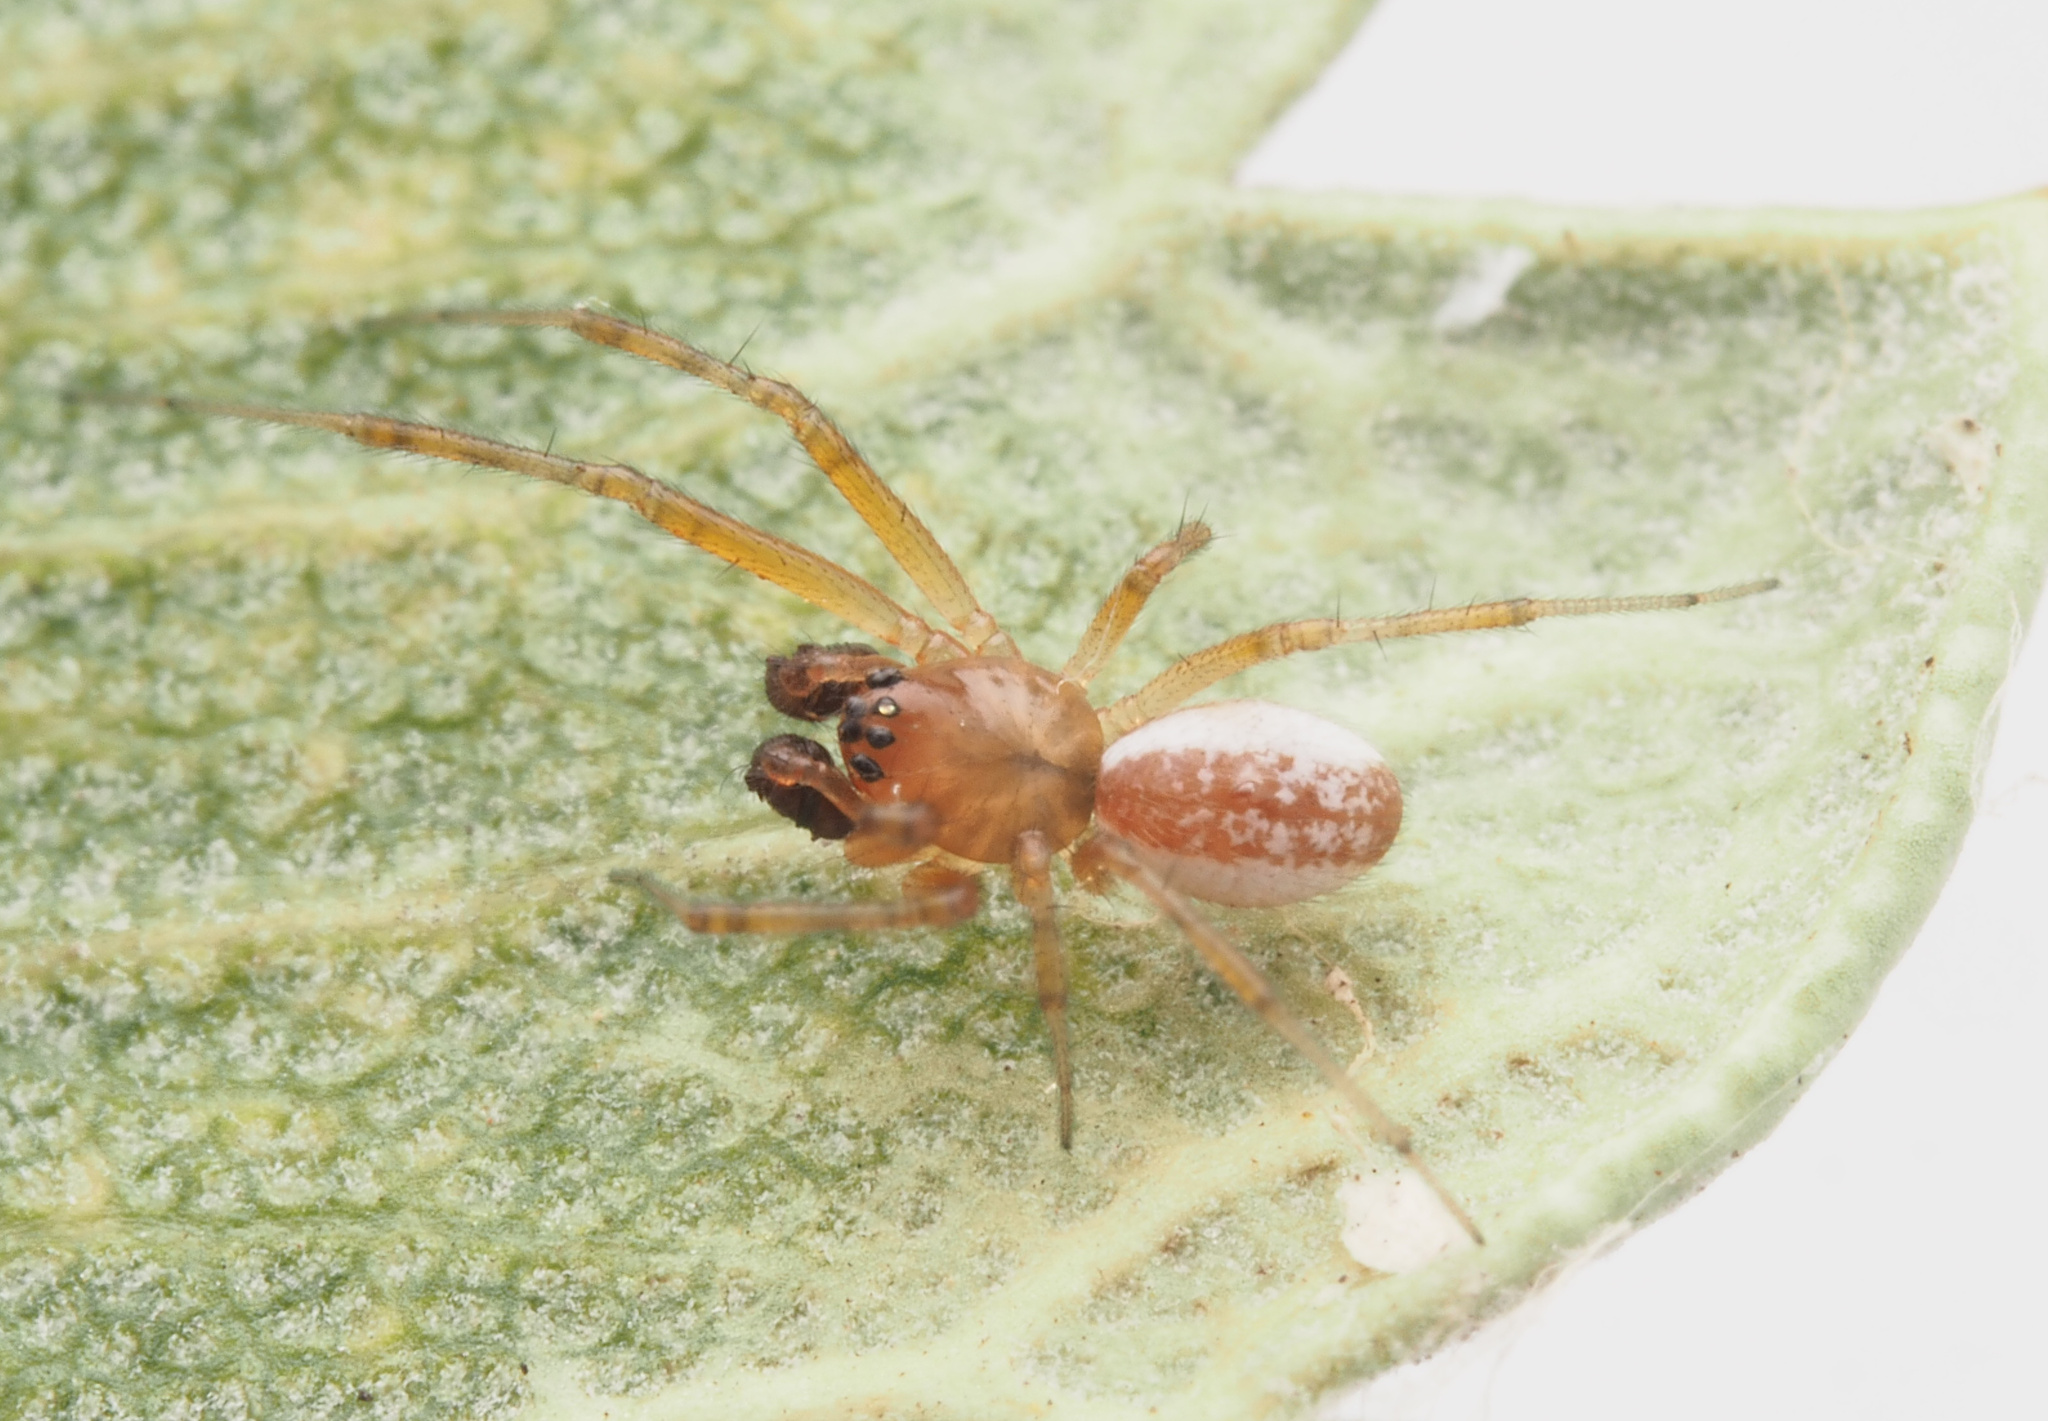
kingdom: Animalia
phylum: Arthropoda
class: Arachnida
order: Araneae
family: Linyphiidae
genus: Laperousea
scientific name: Laperousea
